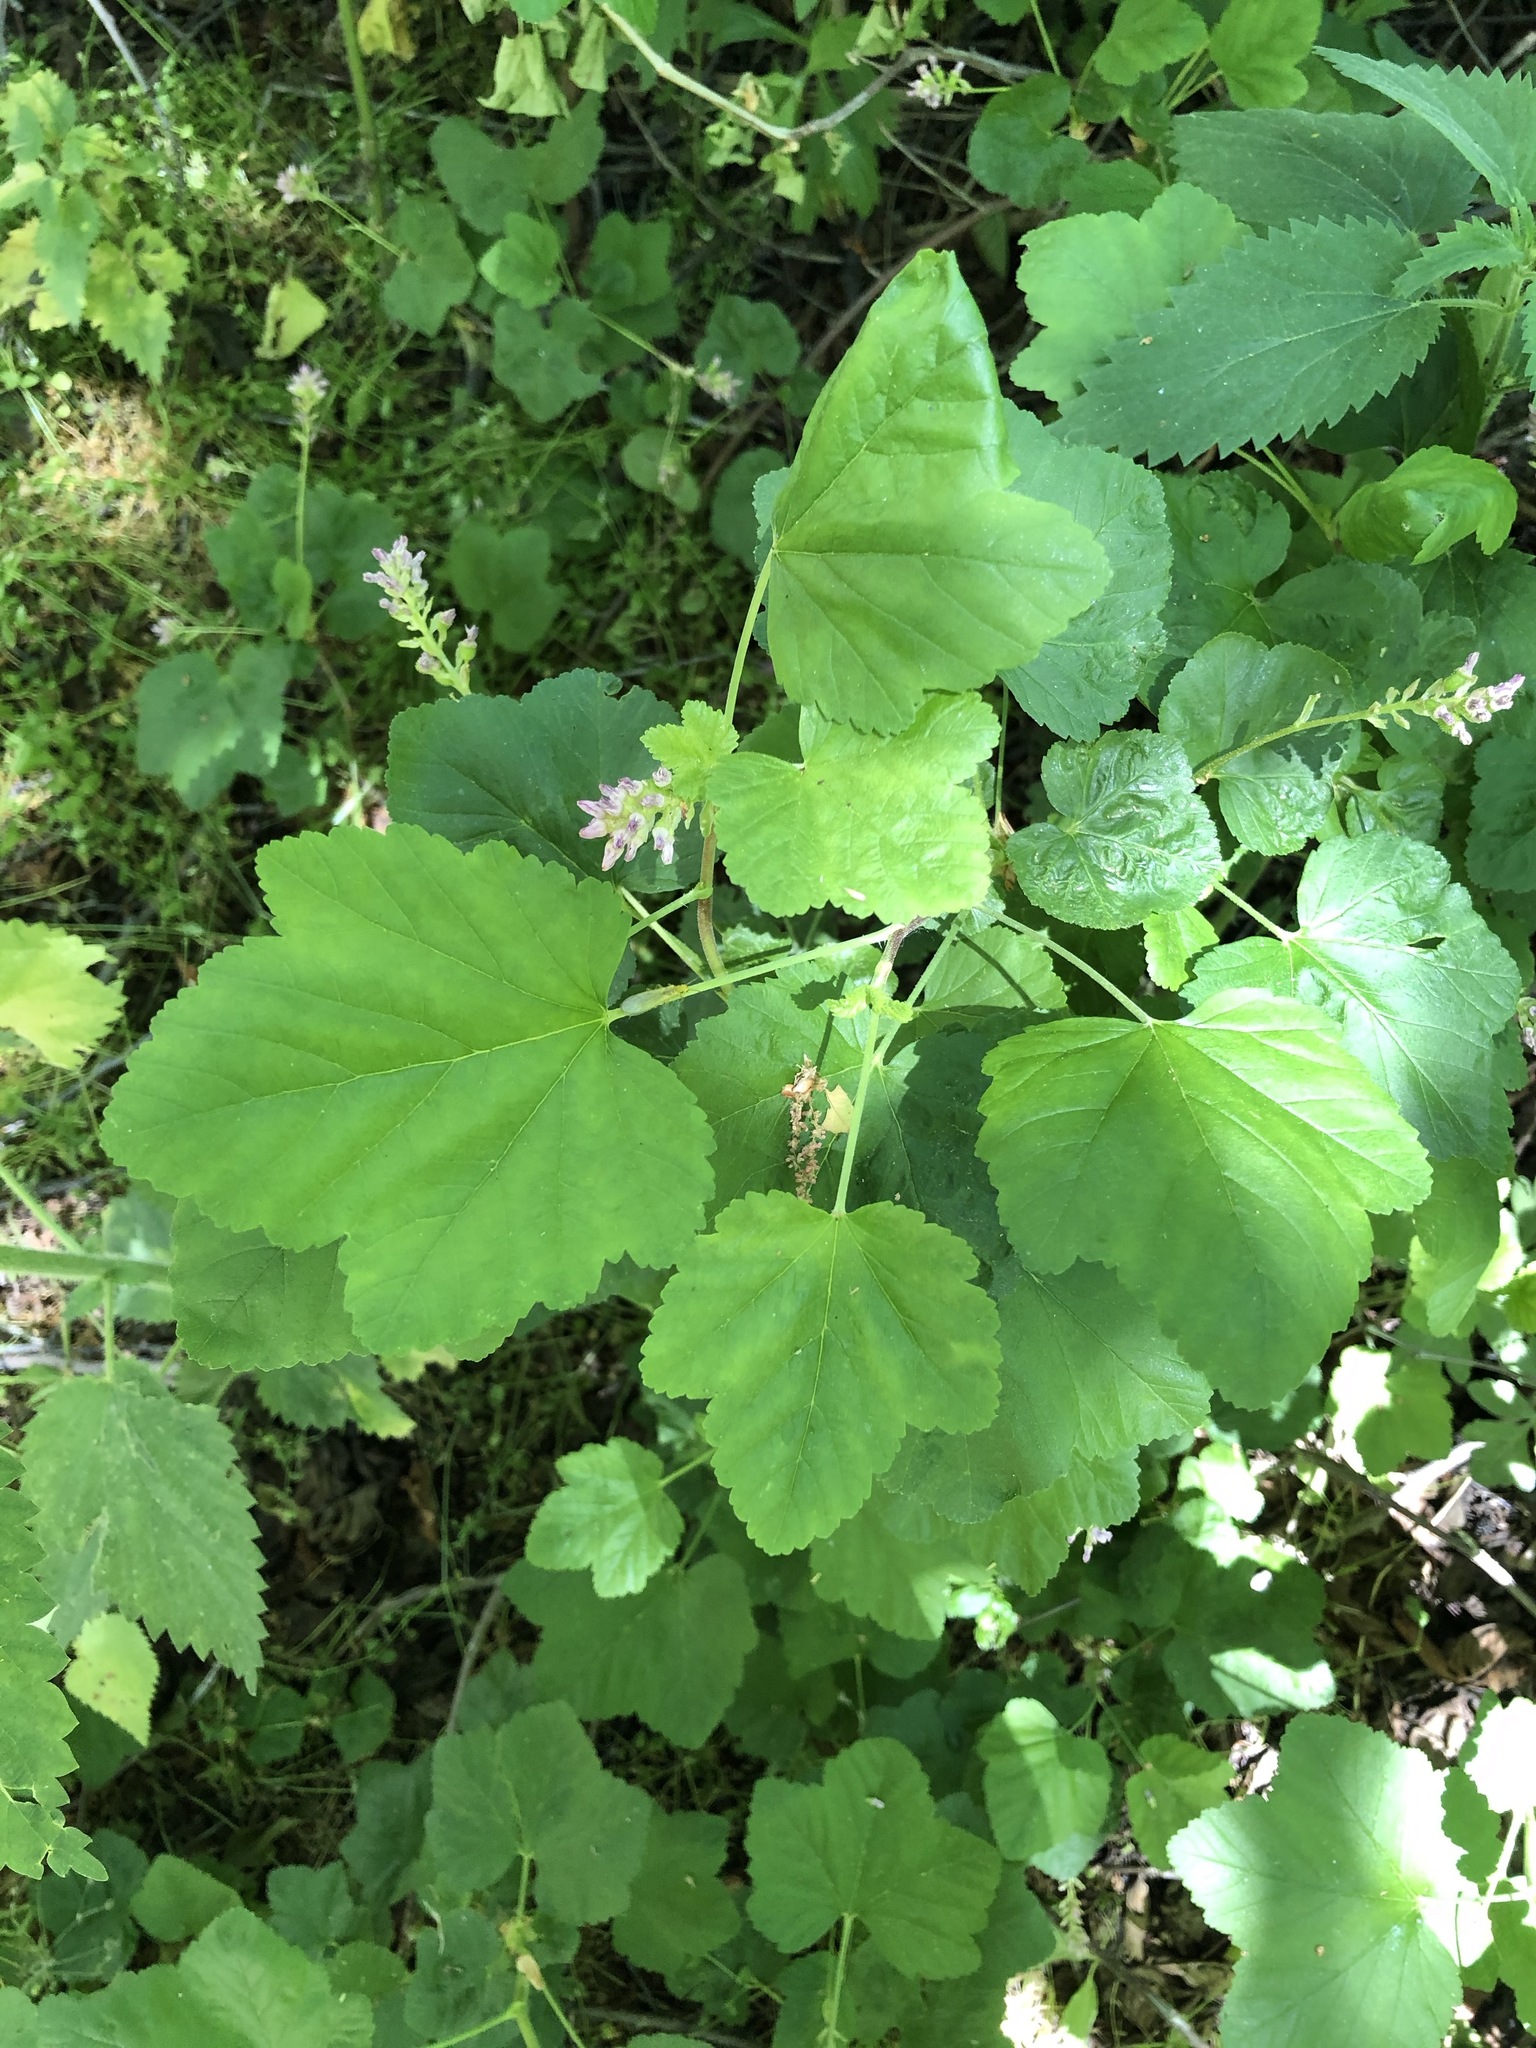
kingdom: Plantae
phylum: Tracheophyta
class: Magnoliopsida
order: Saxifragales
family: Grossulariaceae
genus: Ribes
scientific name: Ribes nevadense
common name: Mountain pink currant
